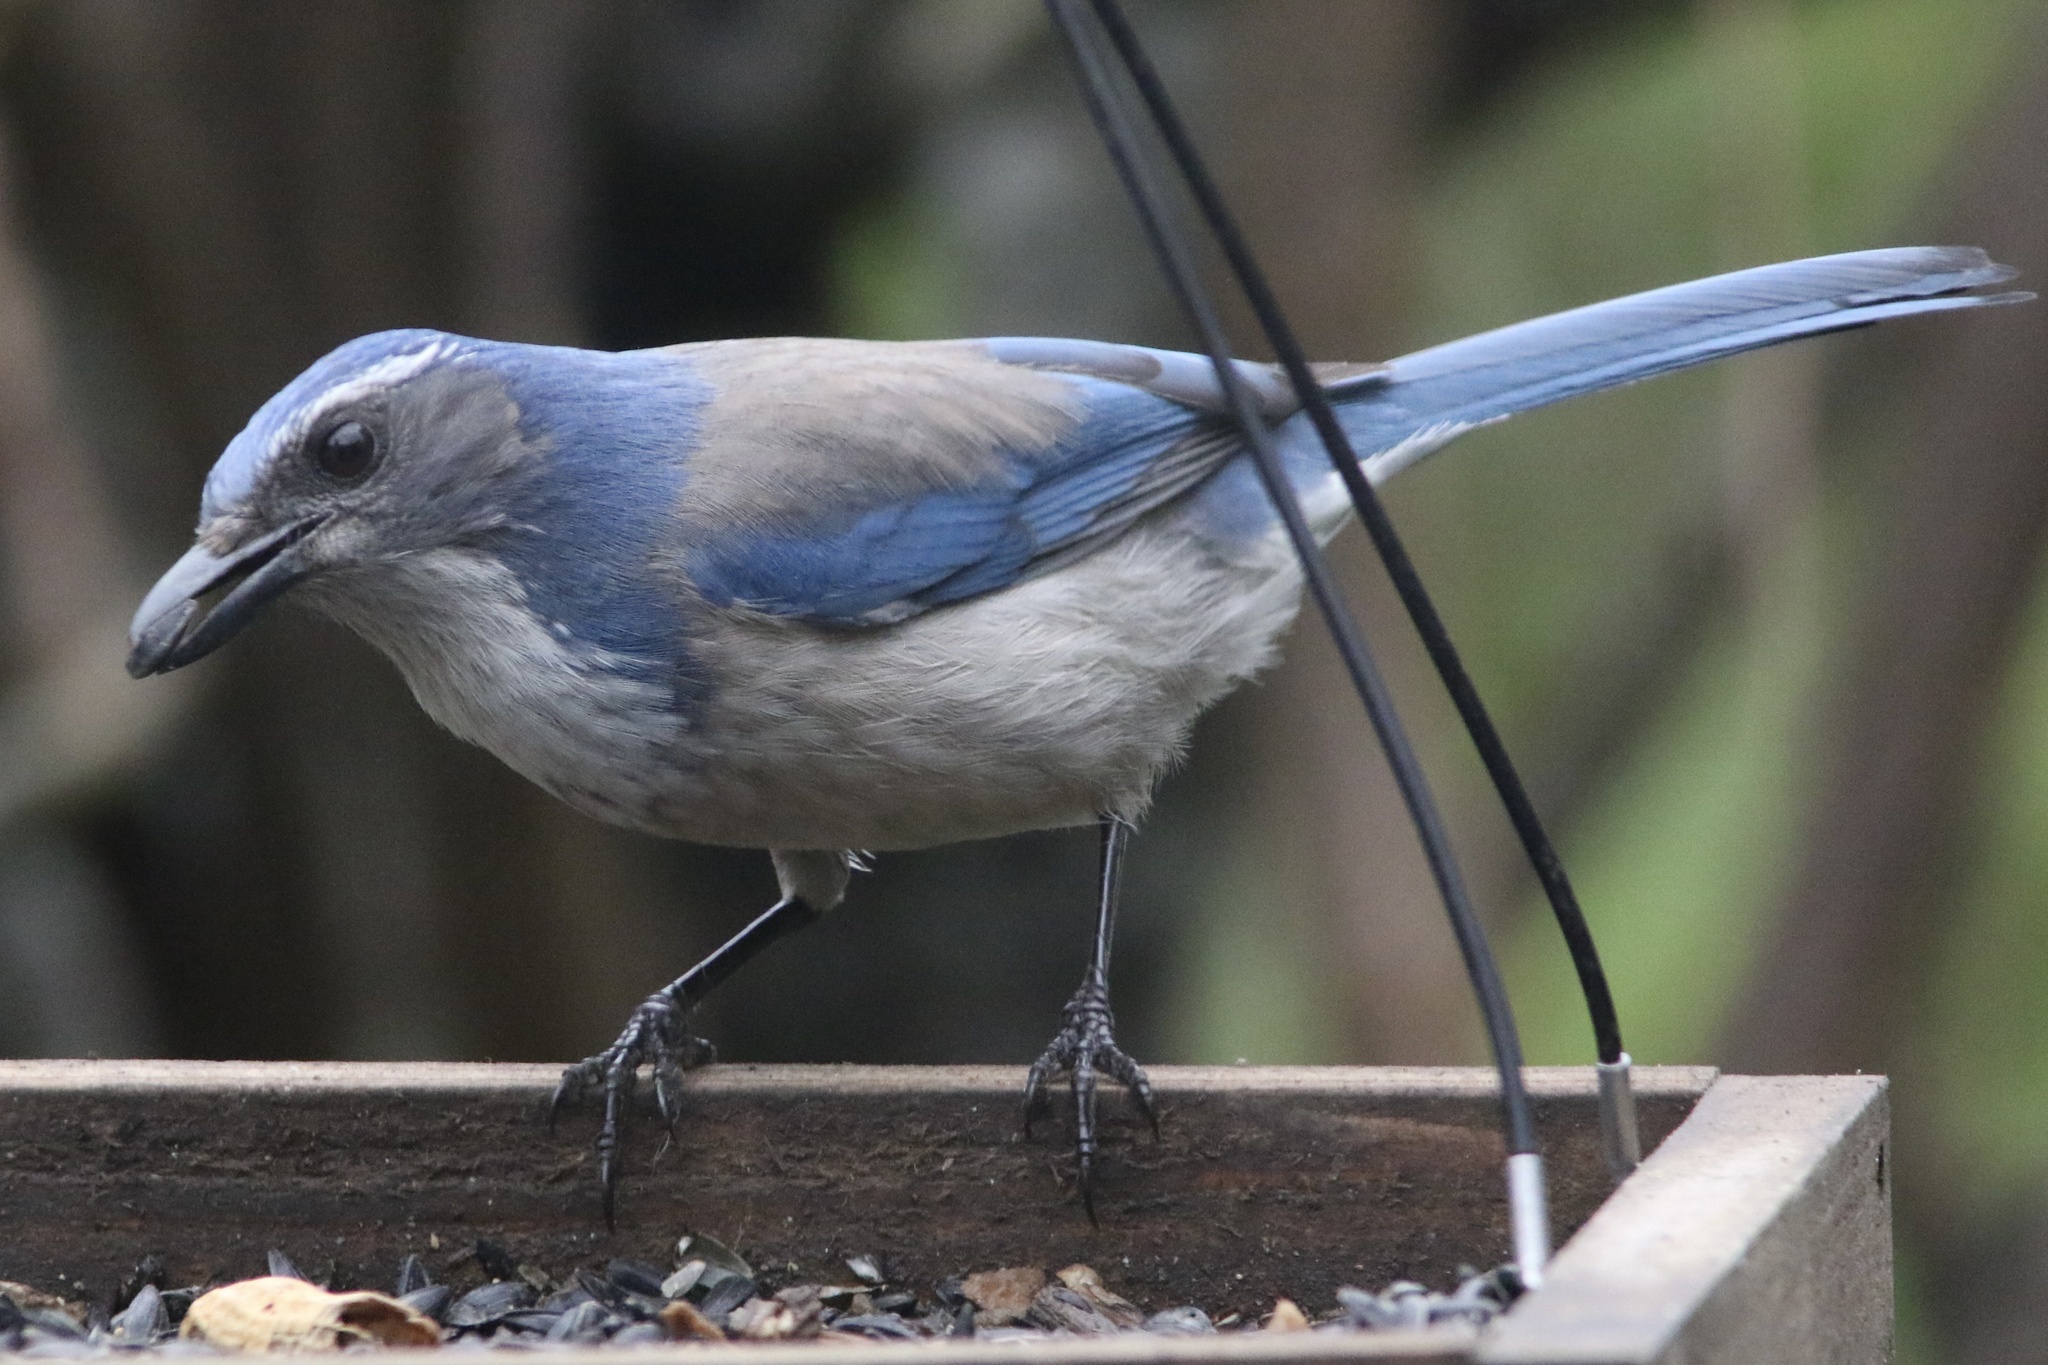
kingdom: Animalia
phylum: Chordata
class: Aves
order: Passeriformes
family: Corvidae
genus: Aphelocoma
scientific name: Aphelocoma californica
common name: California scrub-jay
